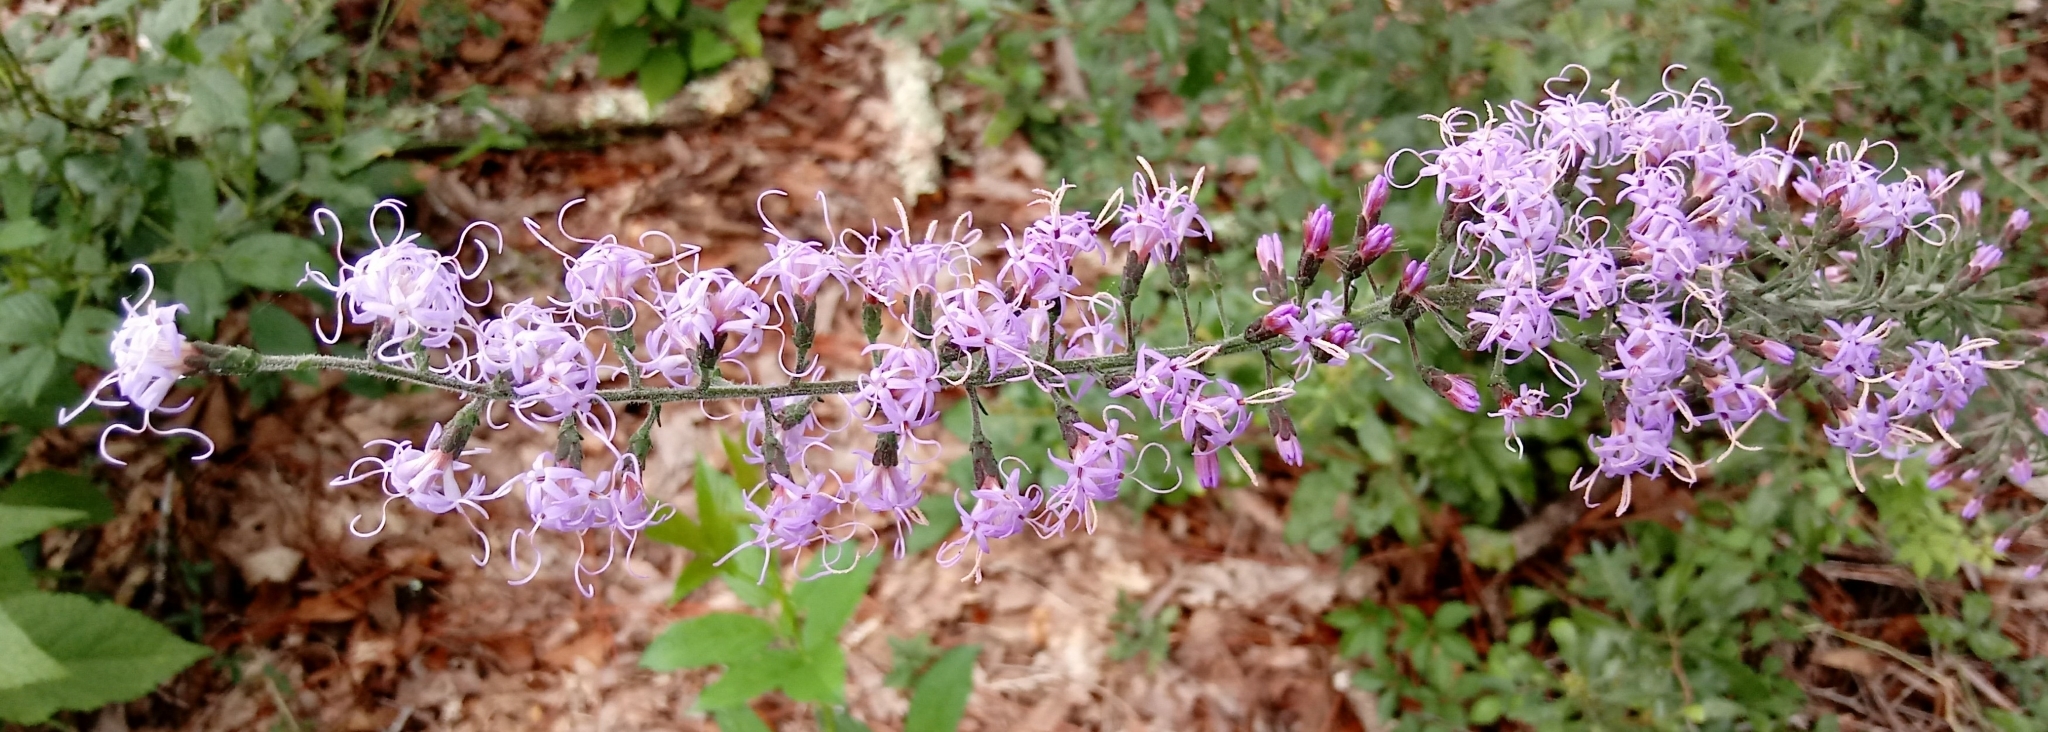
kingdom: Plantae
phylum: Tracheophyta
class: Magnoliopsida
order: Asterales
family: Asteraceae
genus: Liatris
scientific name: Liatris gracilis
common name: Slender gayfeather
